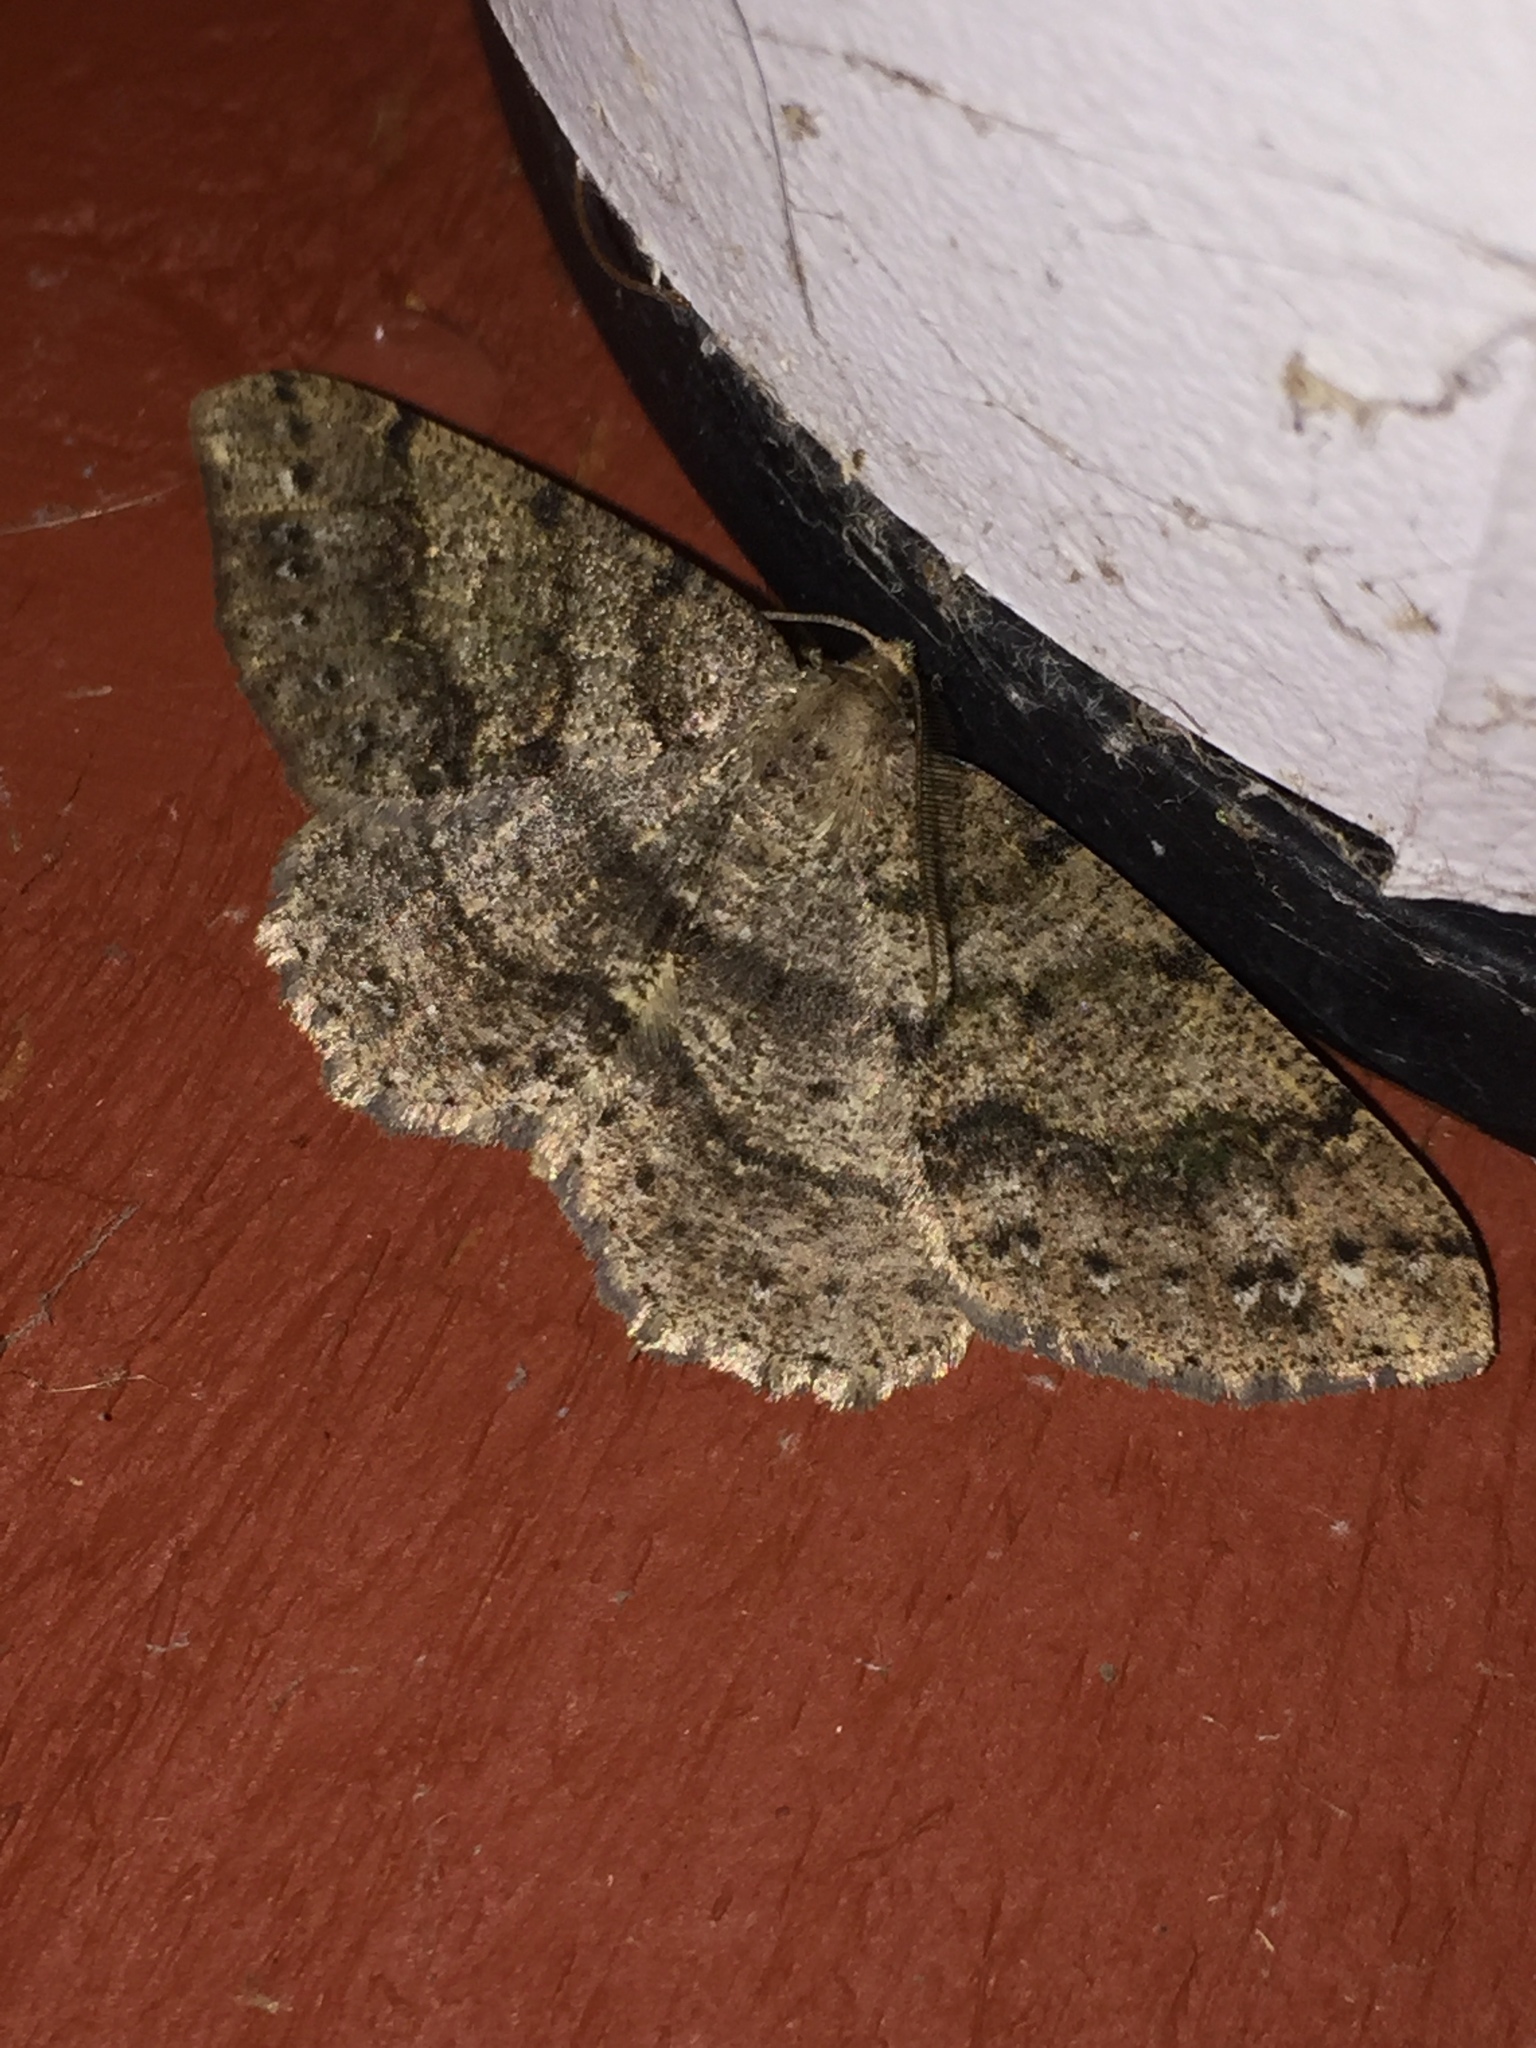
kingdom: Animalia
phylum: Arthropoda
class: Insecta
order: Lepidoptera
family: Geometridae
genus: Melanolophia
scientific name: Melanolophia imitata
